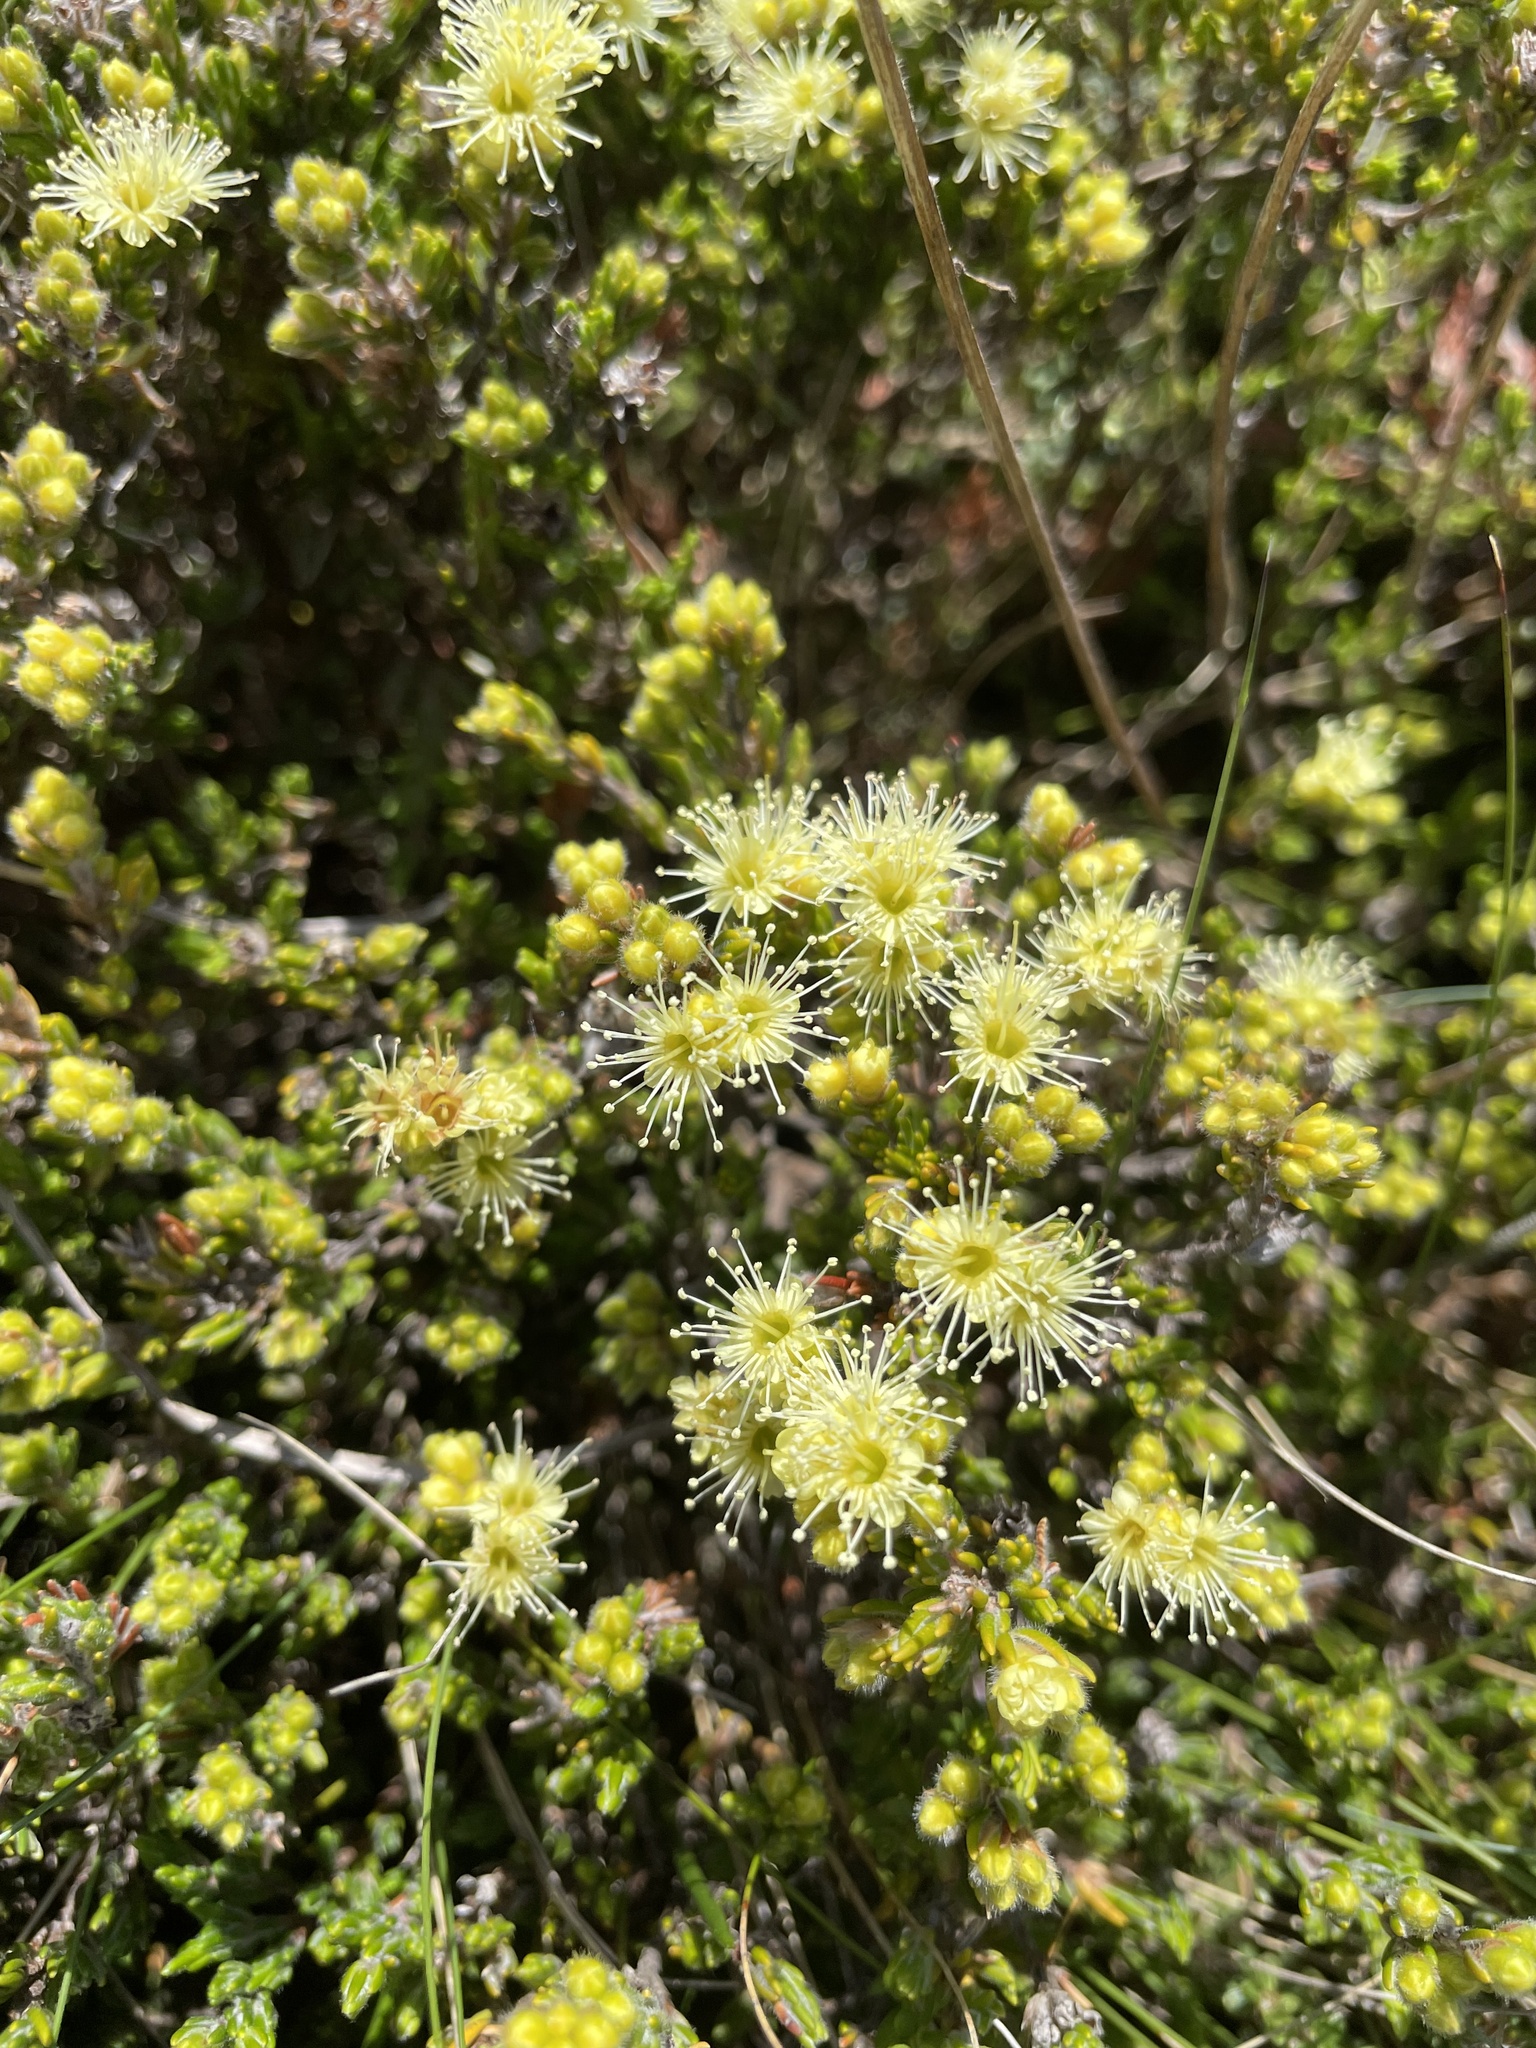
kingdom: Plantae
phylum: Tracheophyta
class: Magnoliopsida
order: Myrtales
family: Myrtaceae
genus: Kunzea
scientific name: Kunzea muelleri
